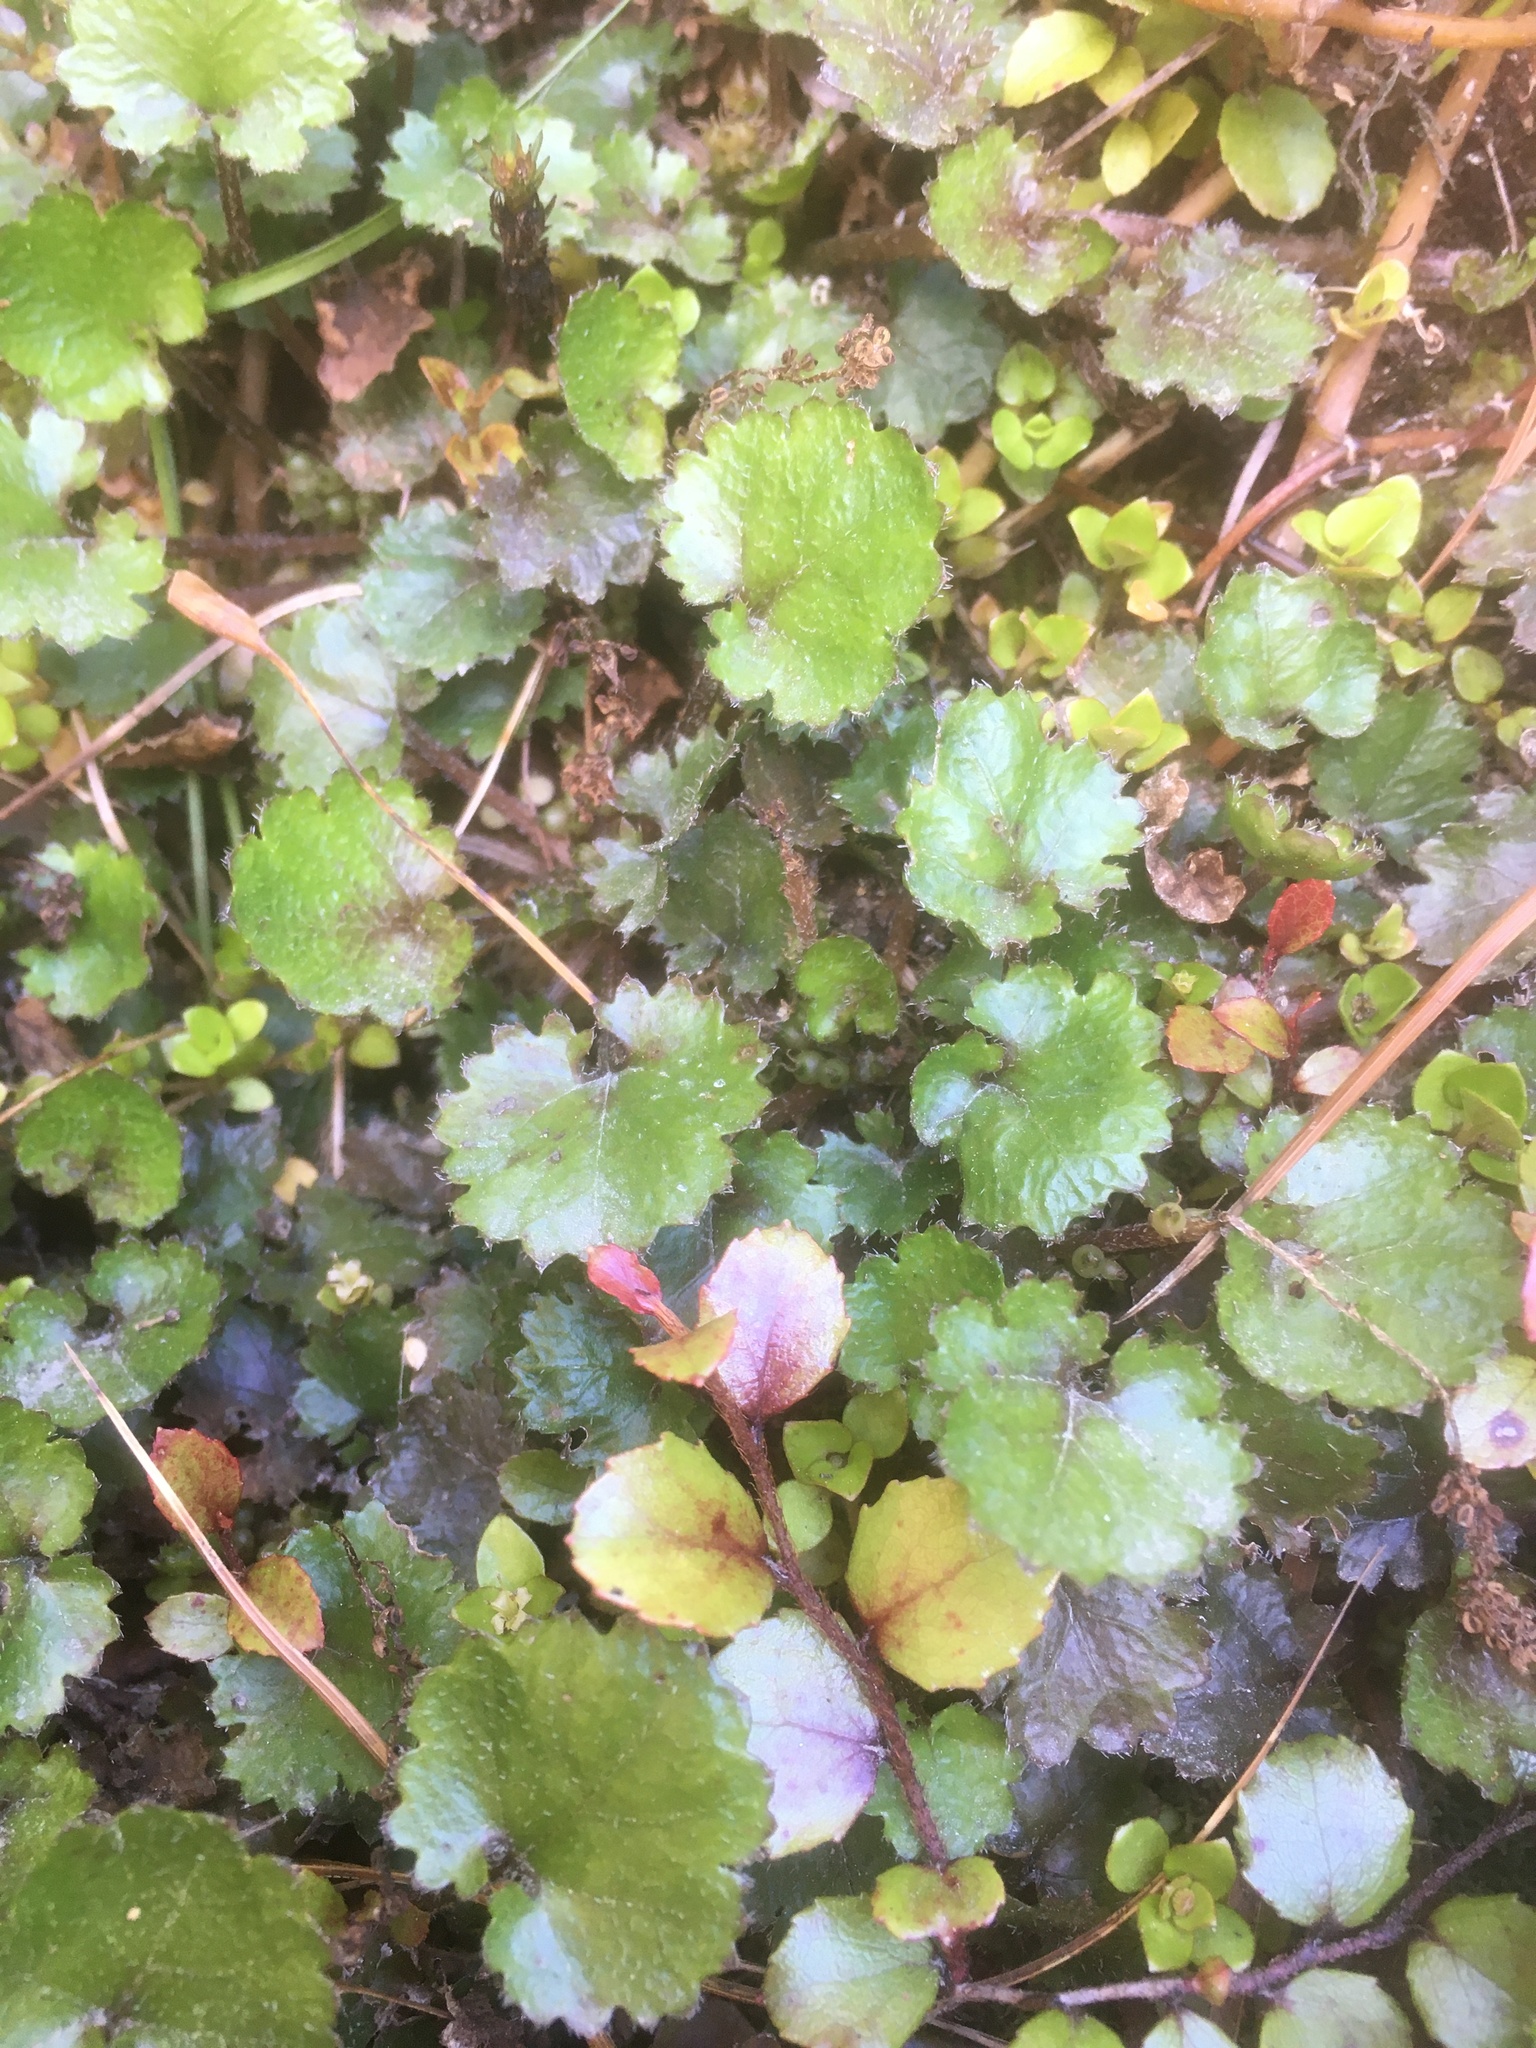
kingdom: Plantae
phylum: Tracheophyta
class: Magnoliopsida
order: Gunnerales
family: Gunneraceae
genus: Gunnera
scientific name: Gunnera monoica
